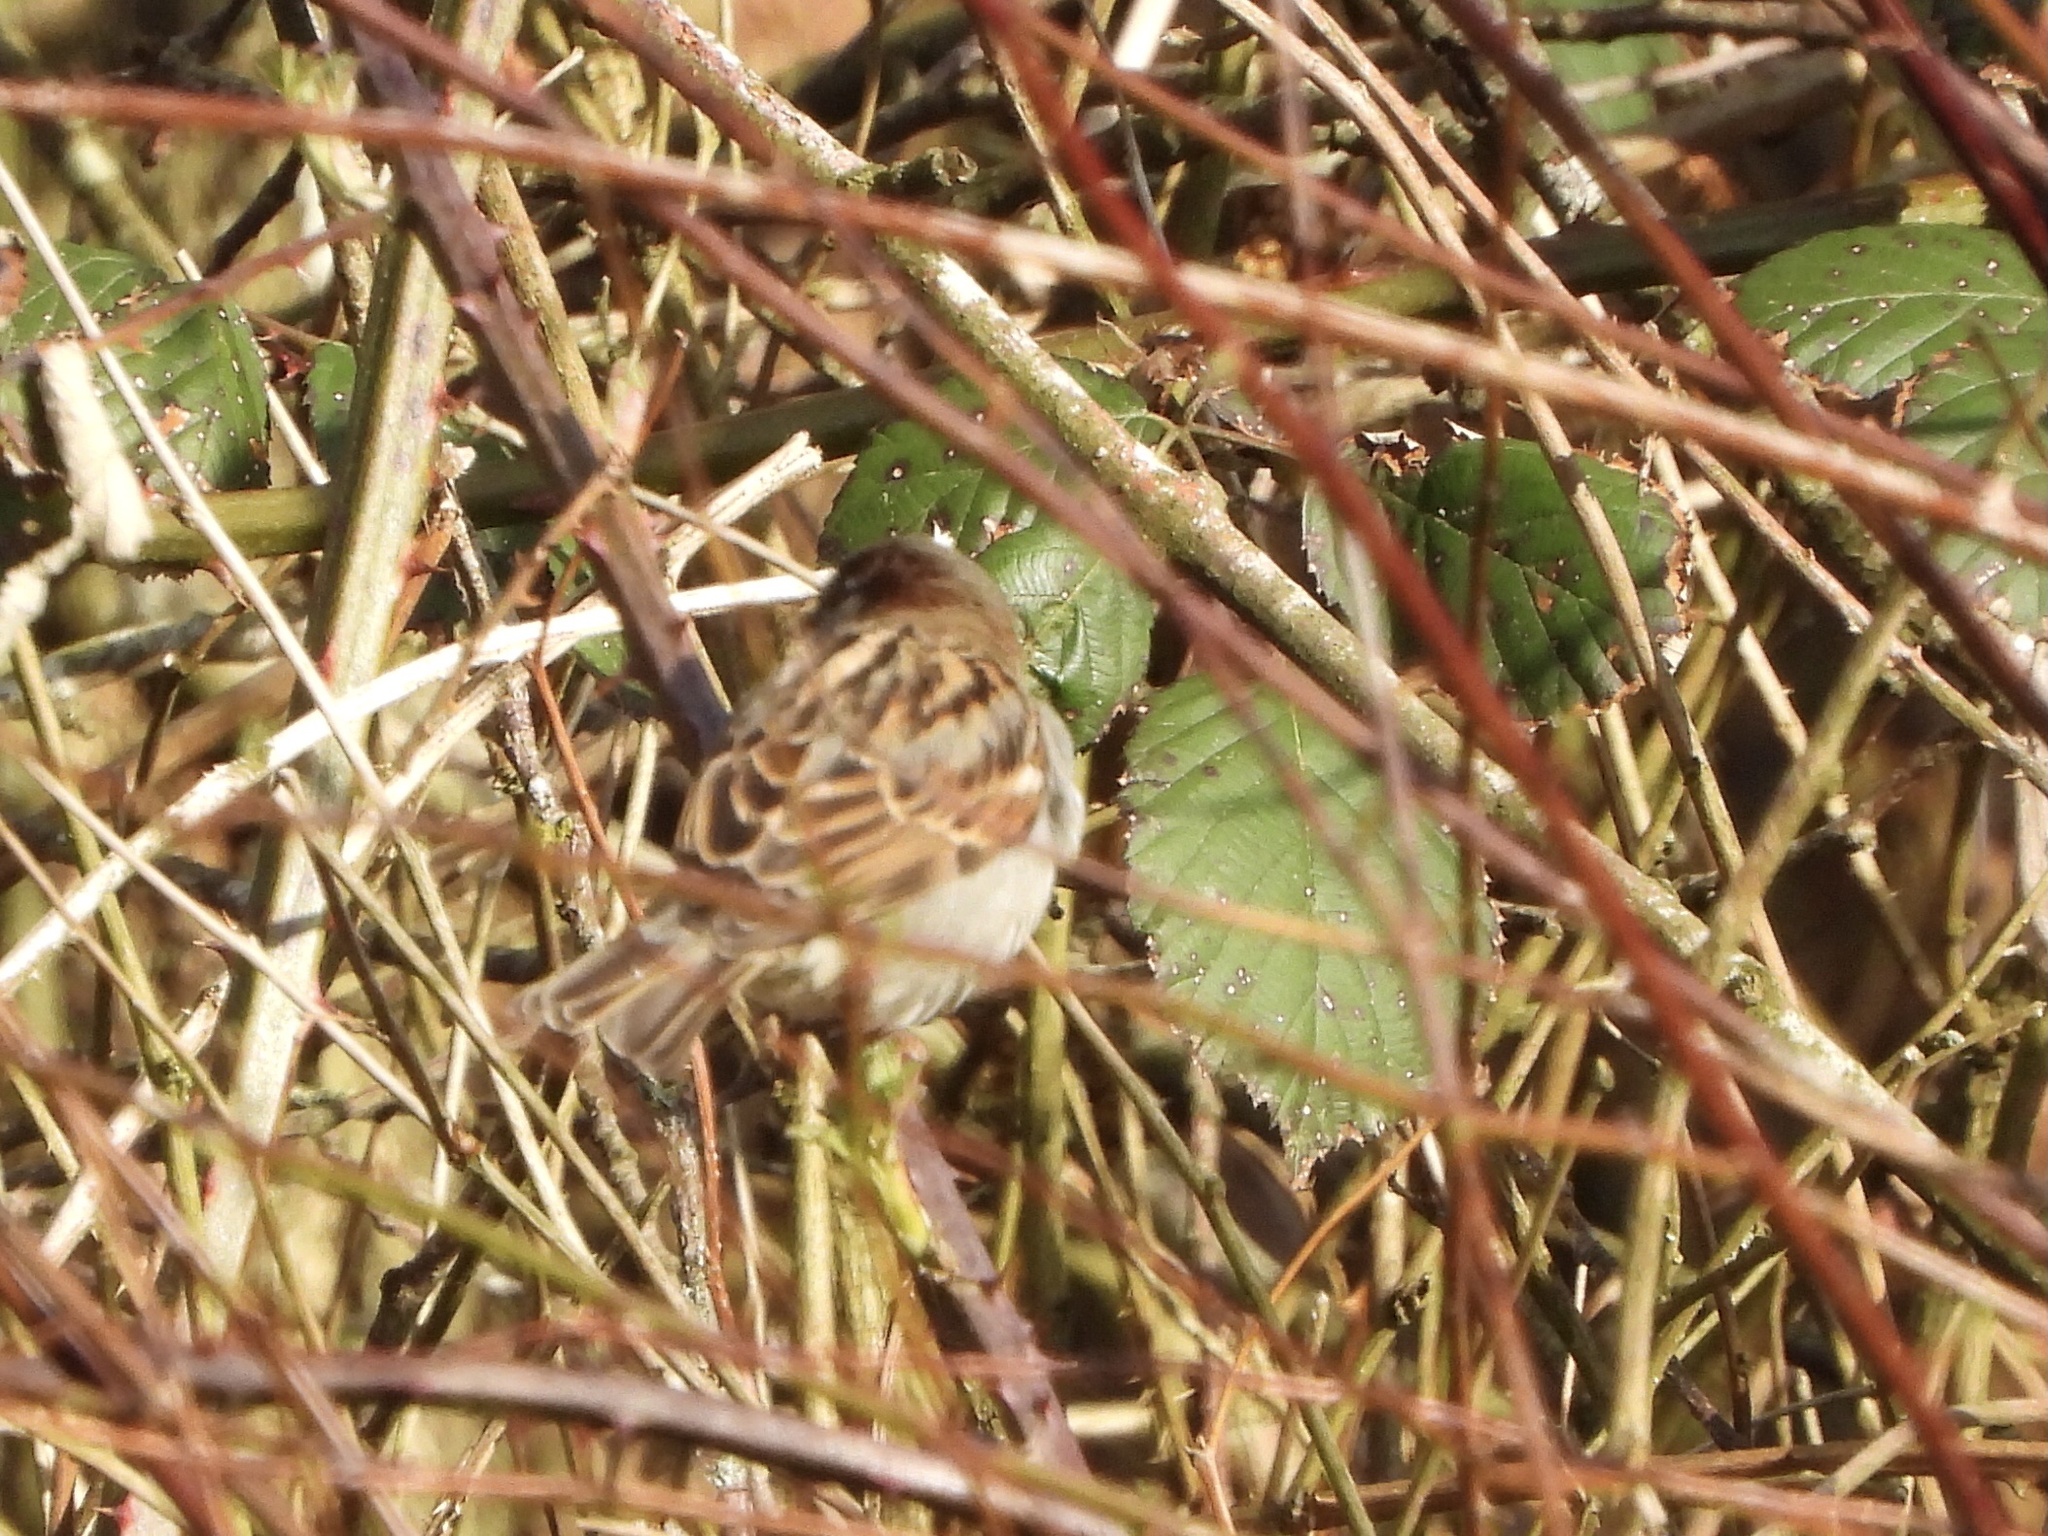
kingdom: Animalia
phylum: Chordata
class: Aves
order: Passeriformes
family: Passeridae
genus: Passer
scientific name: Passer domesticus
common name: House sparrow
